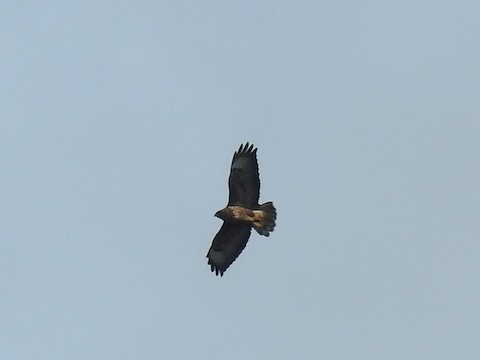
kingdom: Animalia
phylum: Chordata
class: Aves
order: Accipitriformes
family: Accipitridae
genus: Buteo
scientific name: Buteo buteo
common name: Common buzzard
